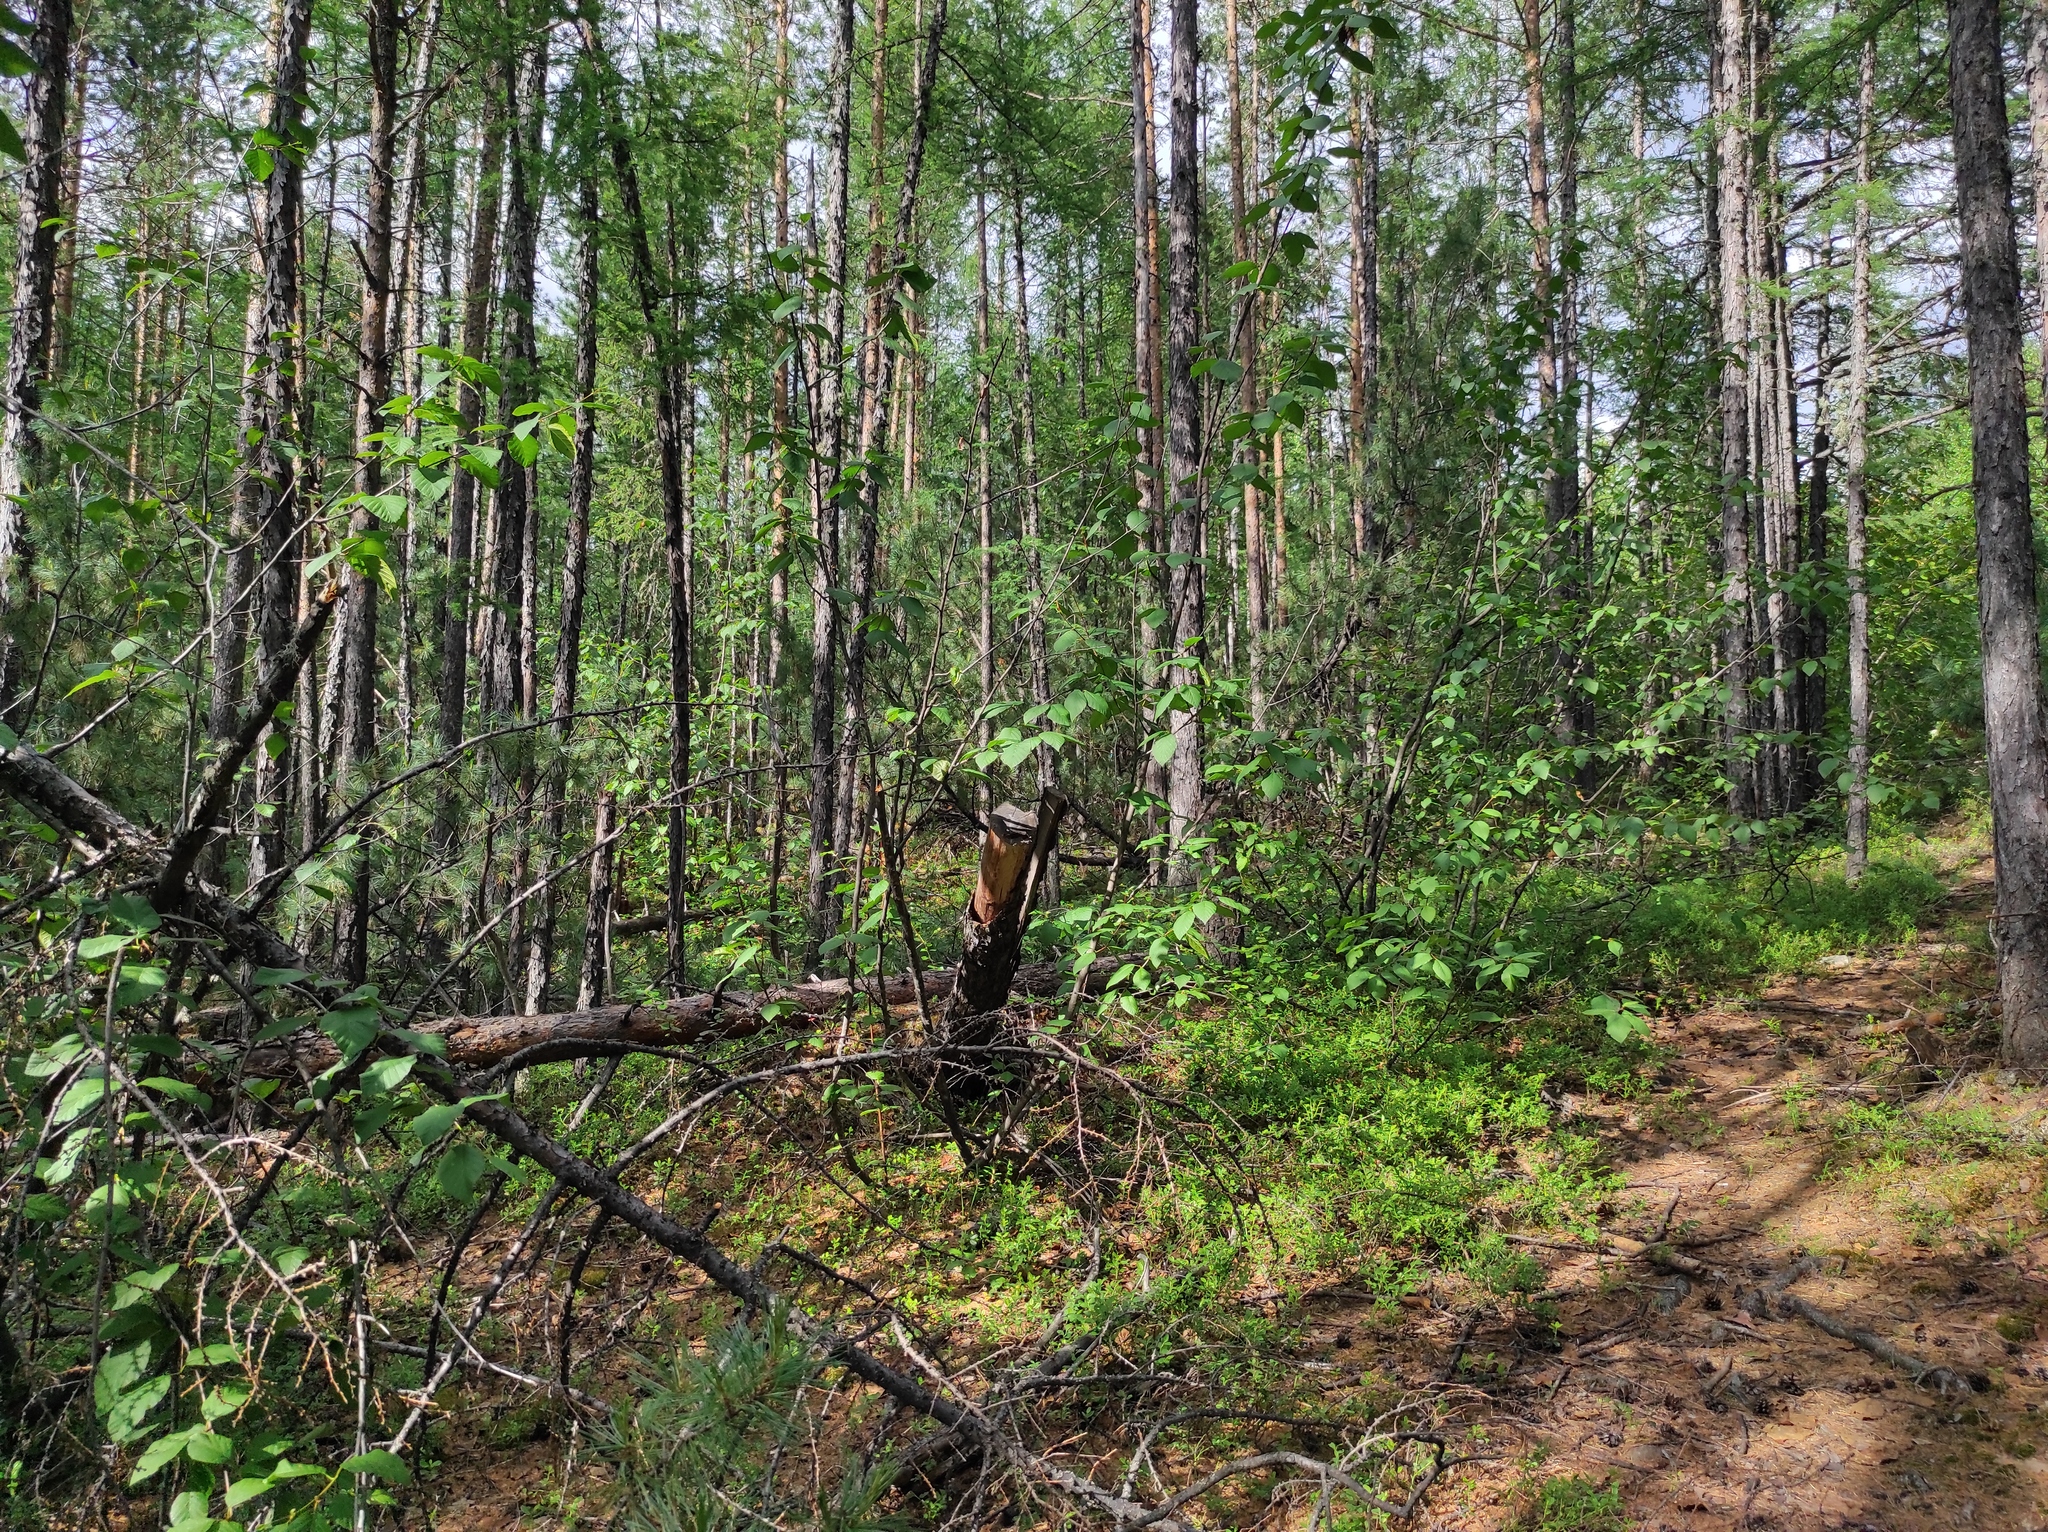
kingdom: Plantae
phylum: Tracheophyta
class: Pinopsida
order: Pinales
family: Pinaceae
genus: Larix
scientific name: Larix gmelinii
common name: Dahurian larch
